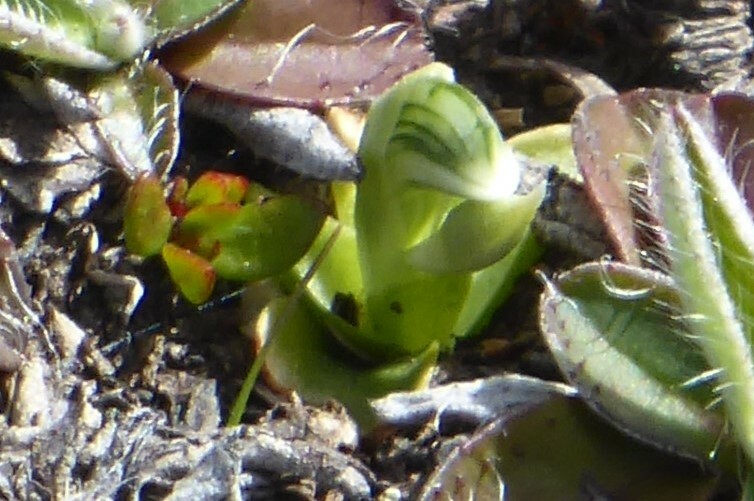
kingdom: Plantae
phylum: Tracheophyta
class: Liliopsida
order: Asparagales
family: Orchidaceae
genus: Pterostylis
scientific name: Pterostylis tanypoda
